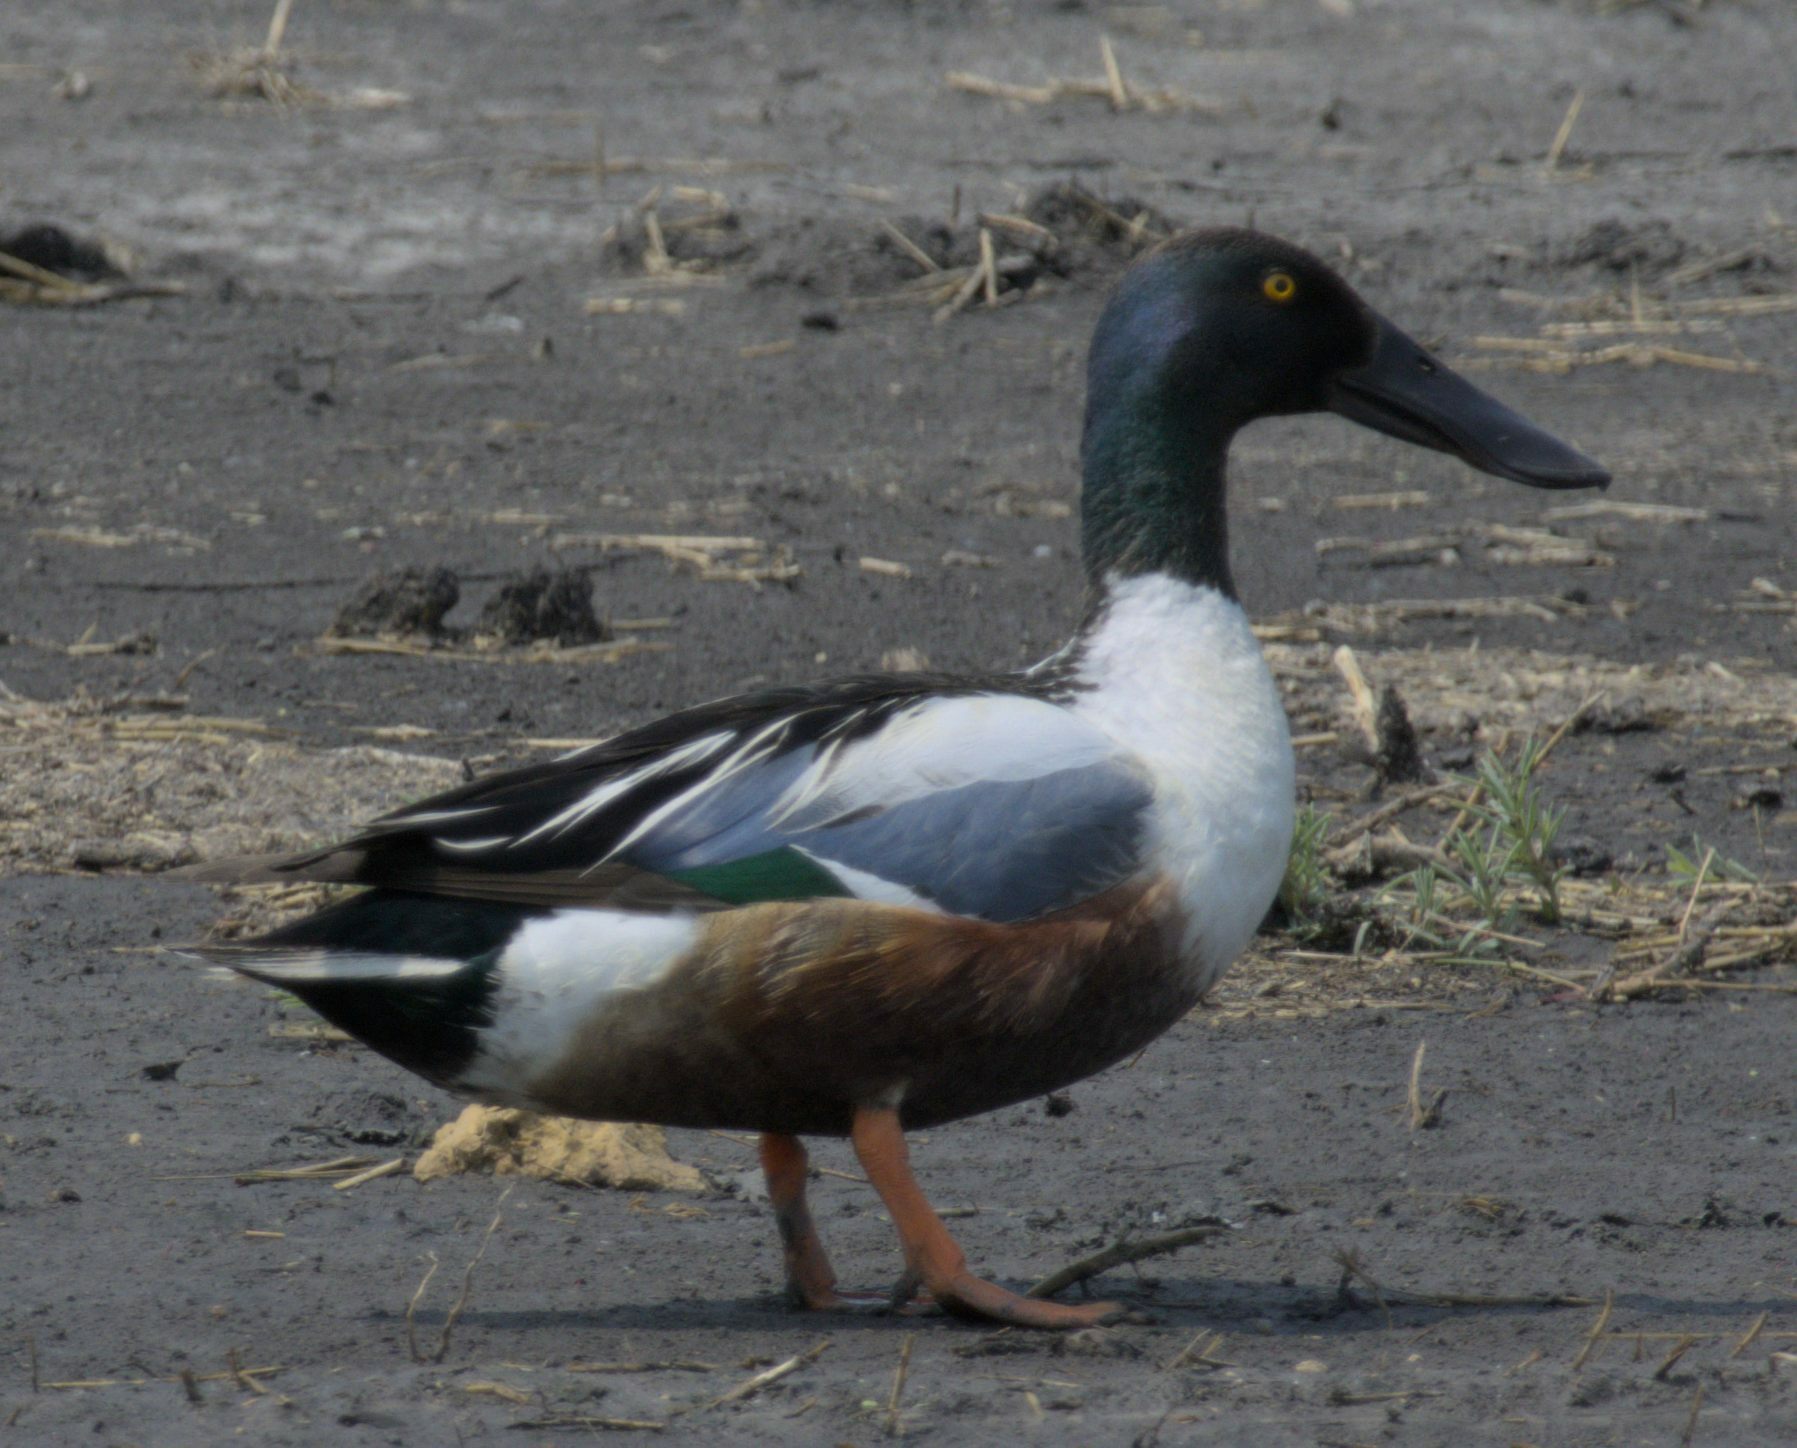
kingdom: Animalia
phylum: Chordata
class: Aves
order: Anseriformes
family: Anatidae
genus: Spatula
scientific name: Spatula clypeata
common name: Northern shoveler
